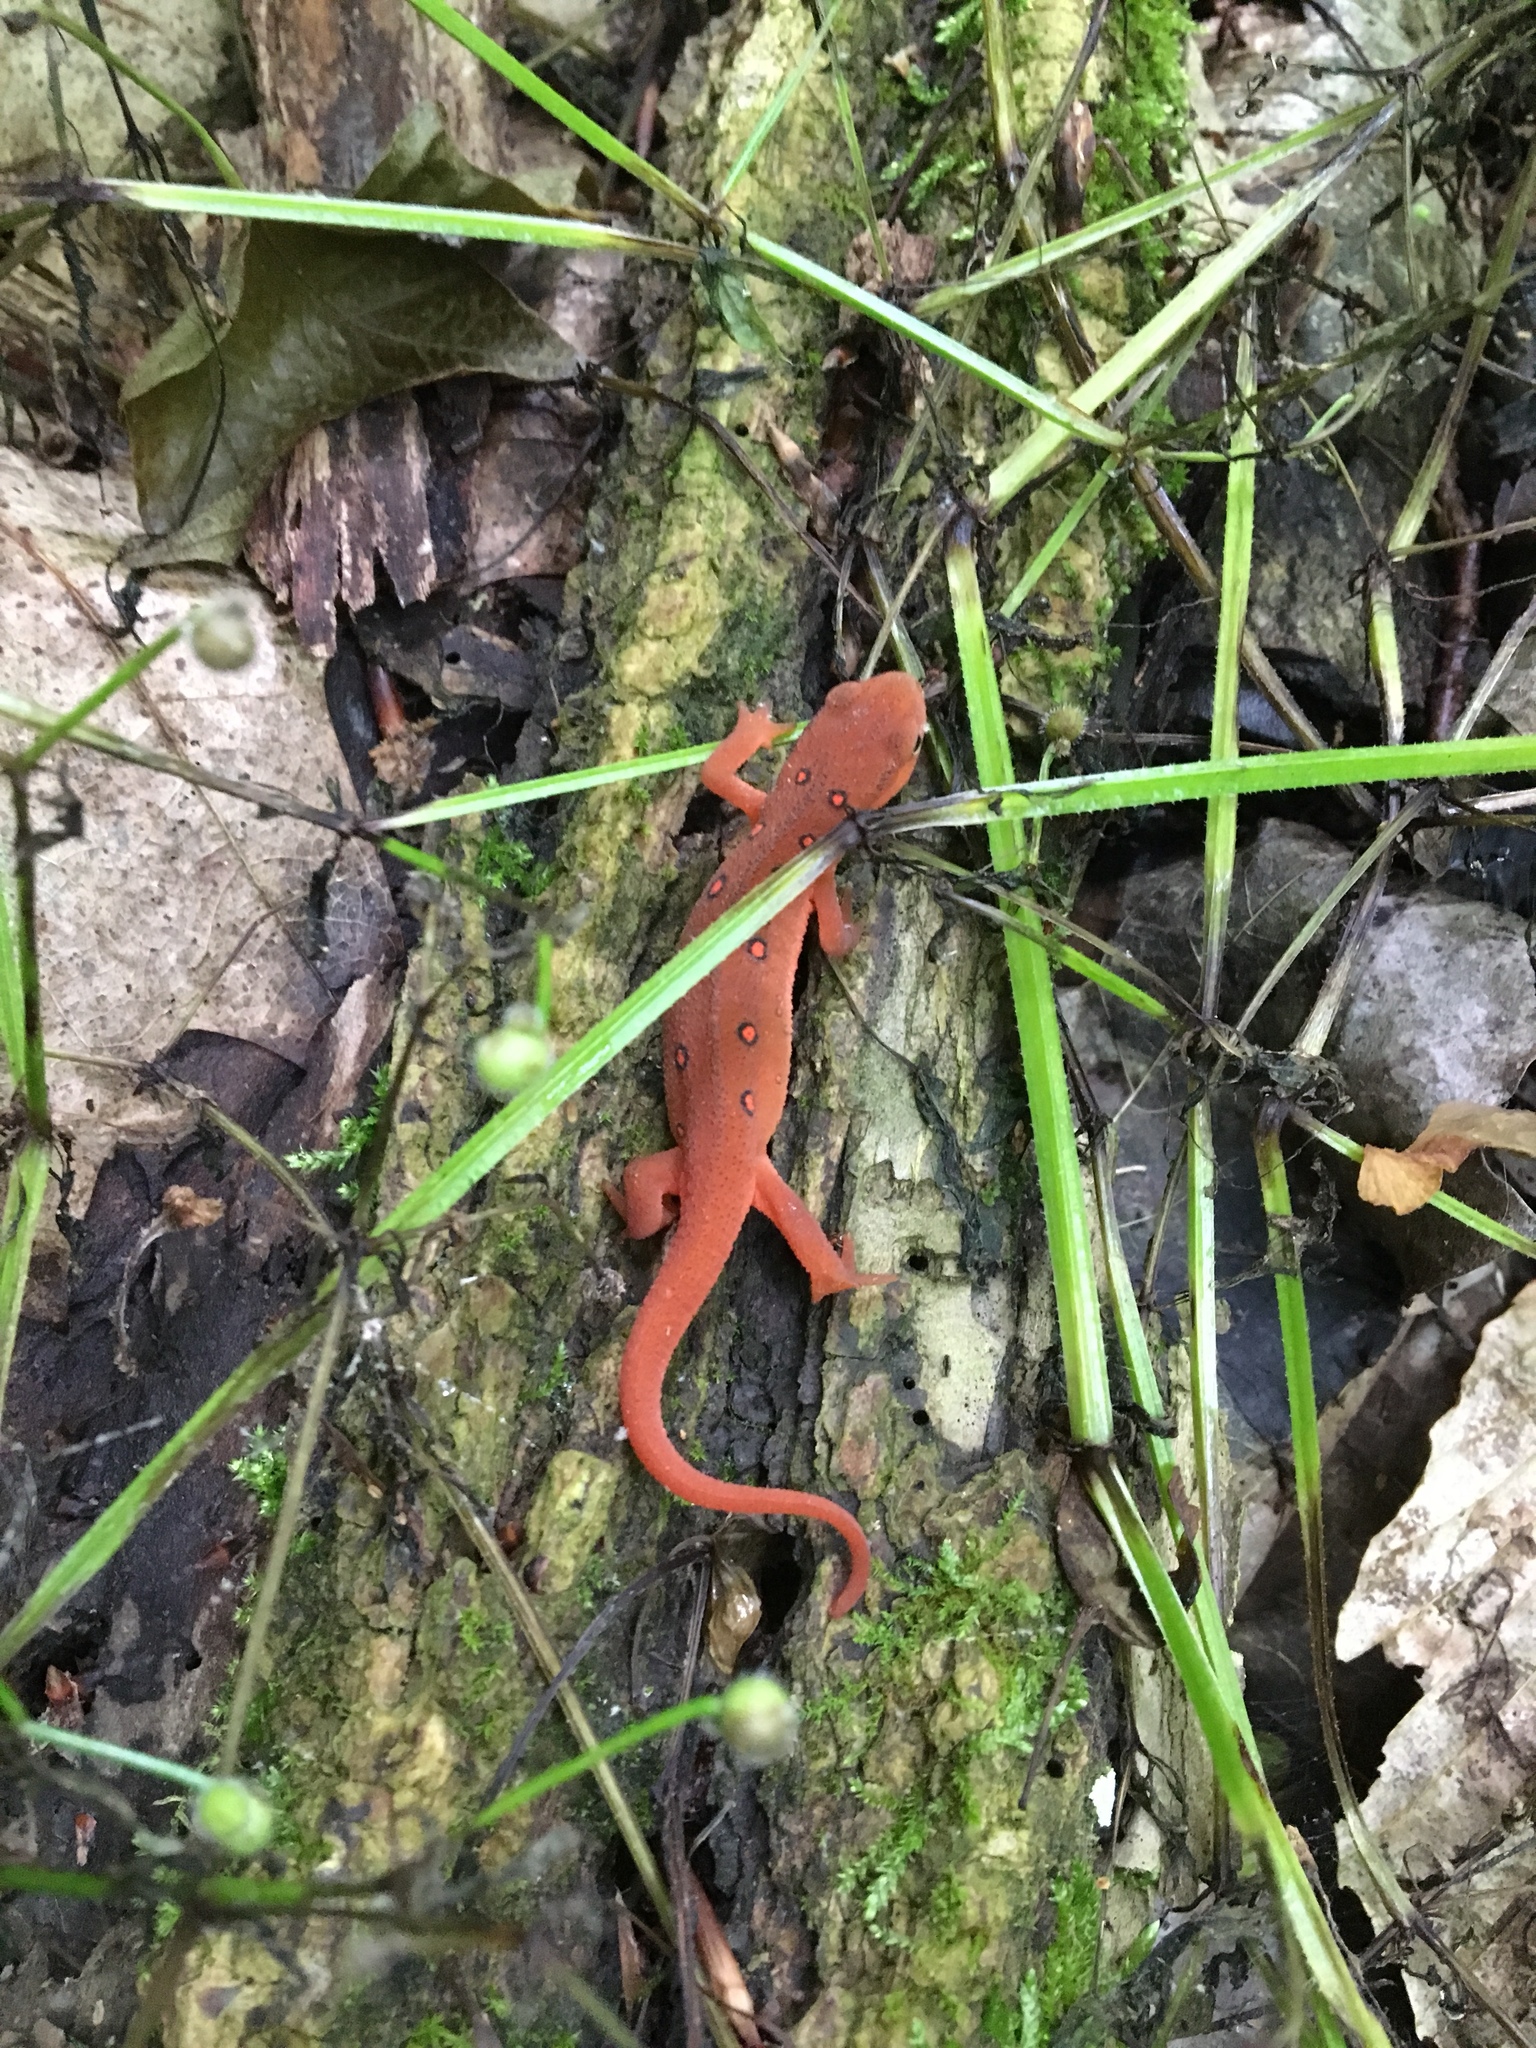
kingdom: Animalia
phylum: Chordata
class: Amphibia
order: Caudata
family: Salamandridae
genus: Notophthalmus
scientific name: Notophthalmus viridescens
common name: Eastern newt
